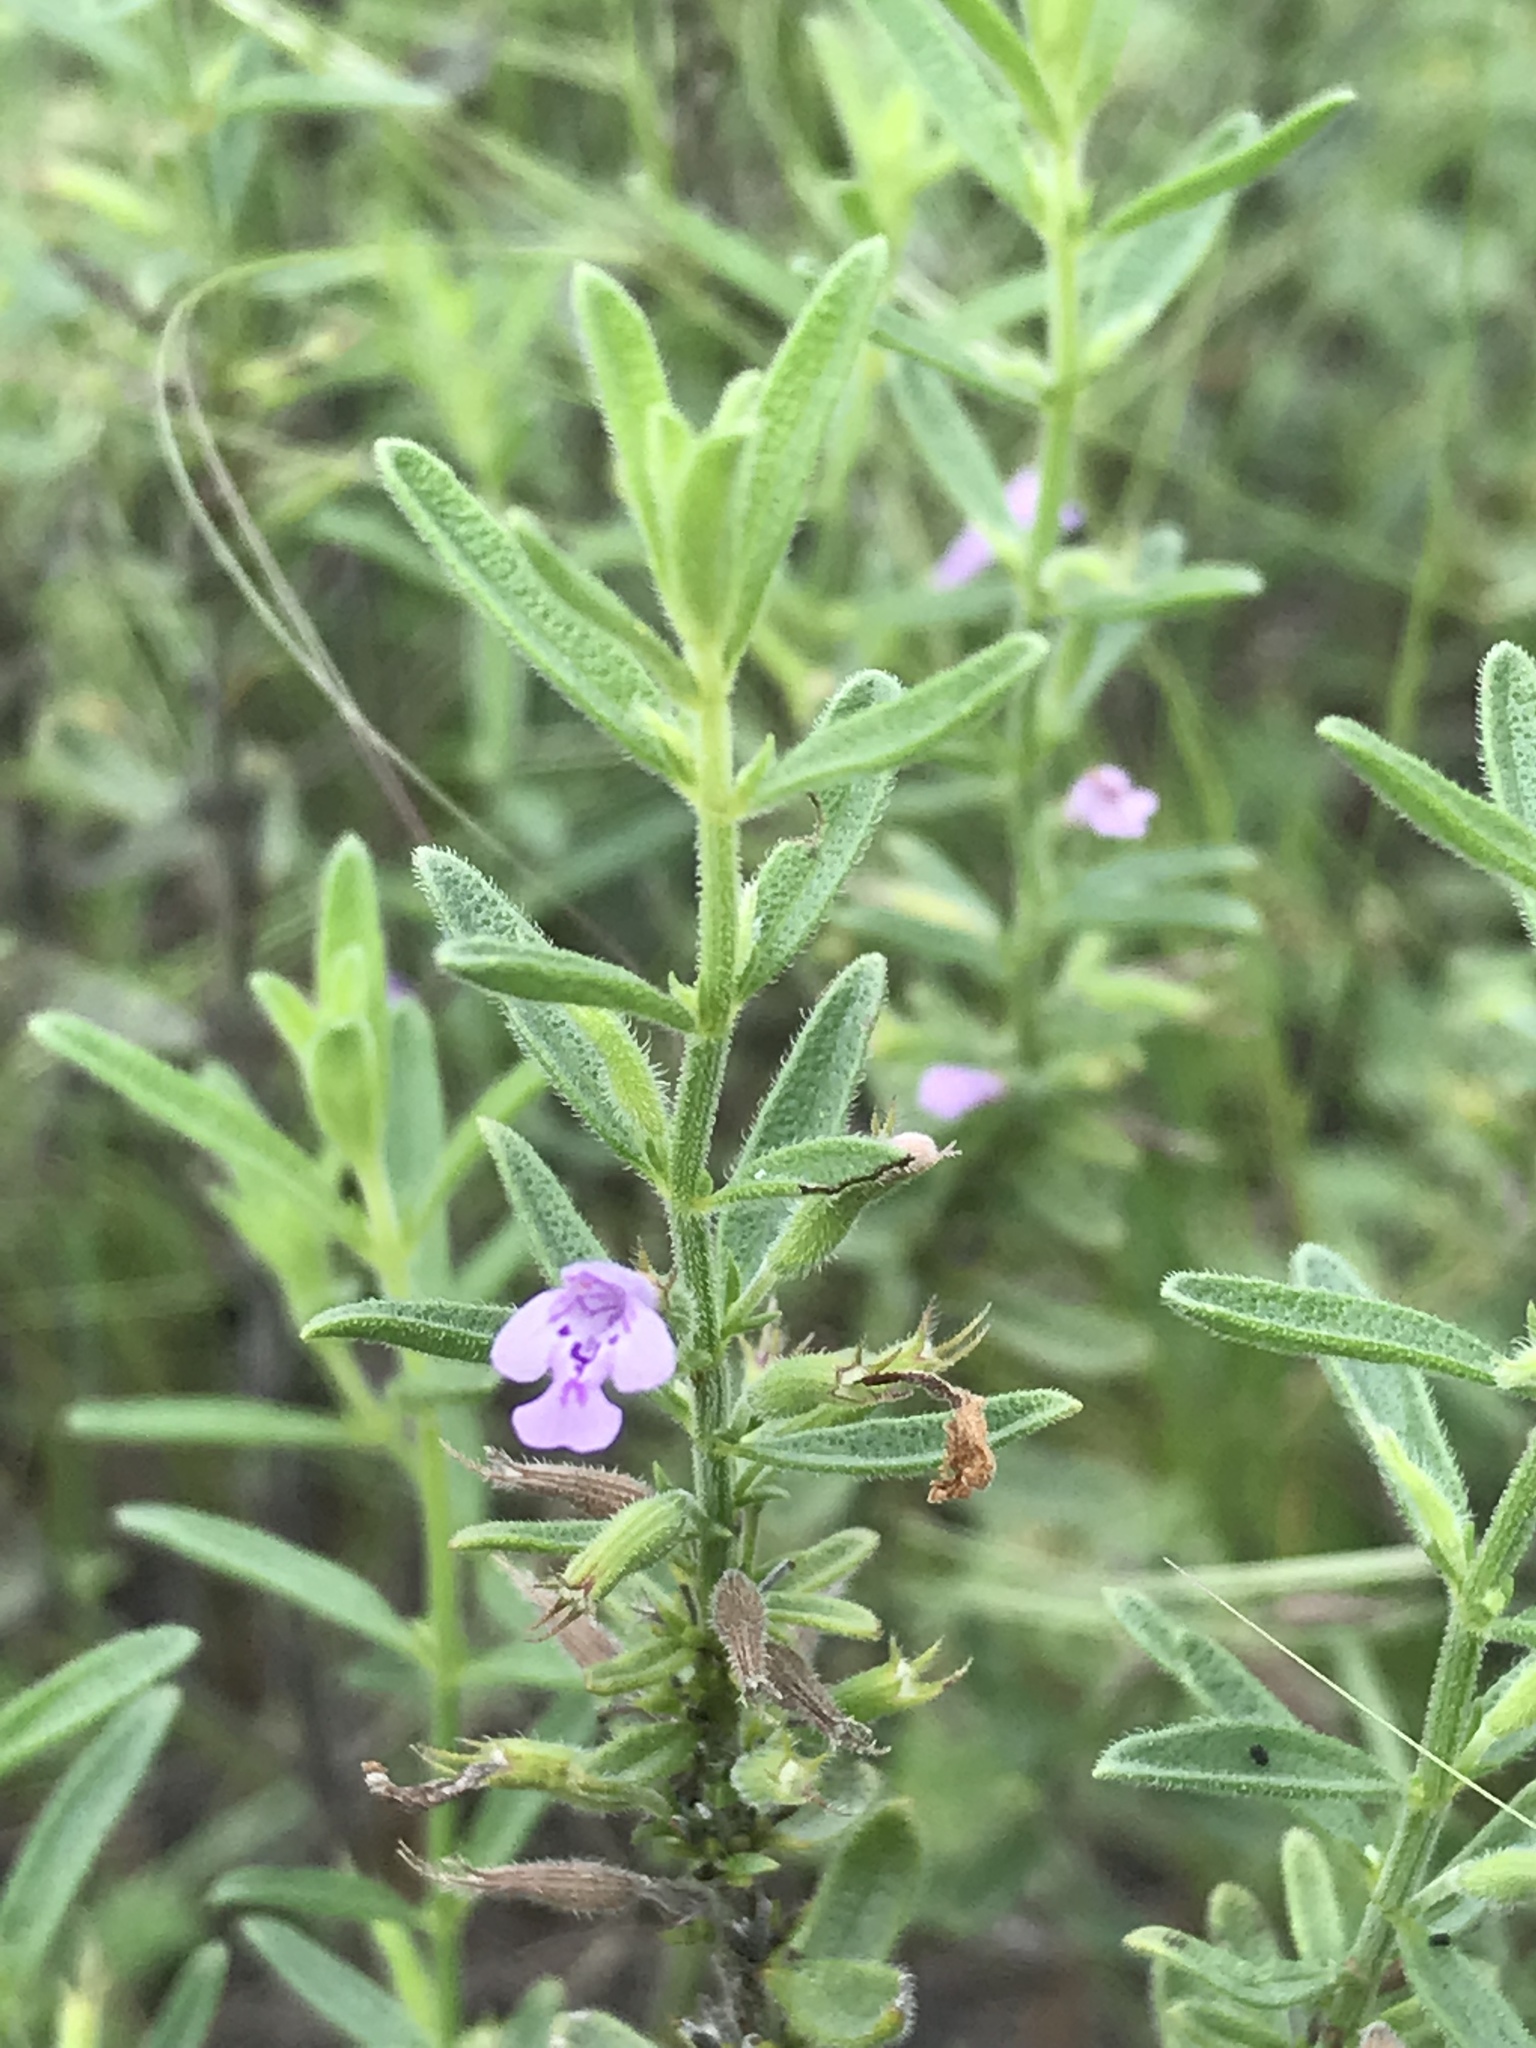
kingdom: Plantae
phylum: Tracheophyta
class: Magnoliopsida
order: Lamiales
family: Lamiaceae
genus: Hedeoma
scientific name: Hedeoma reverchonii
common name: Reverchon's false penny-royal
